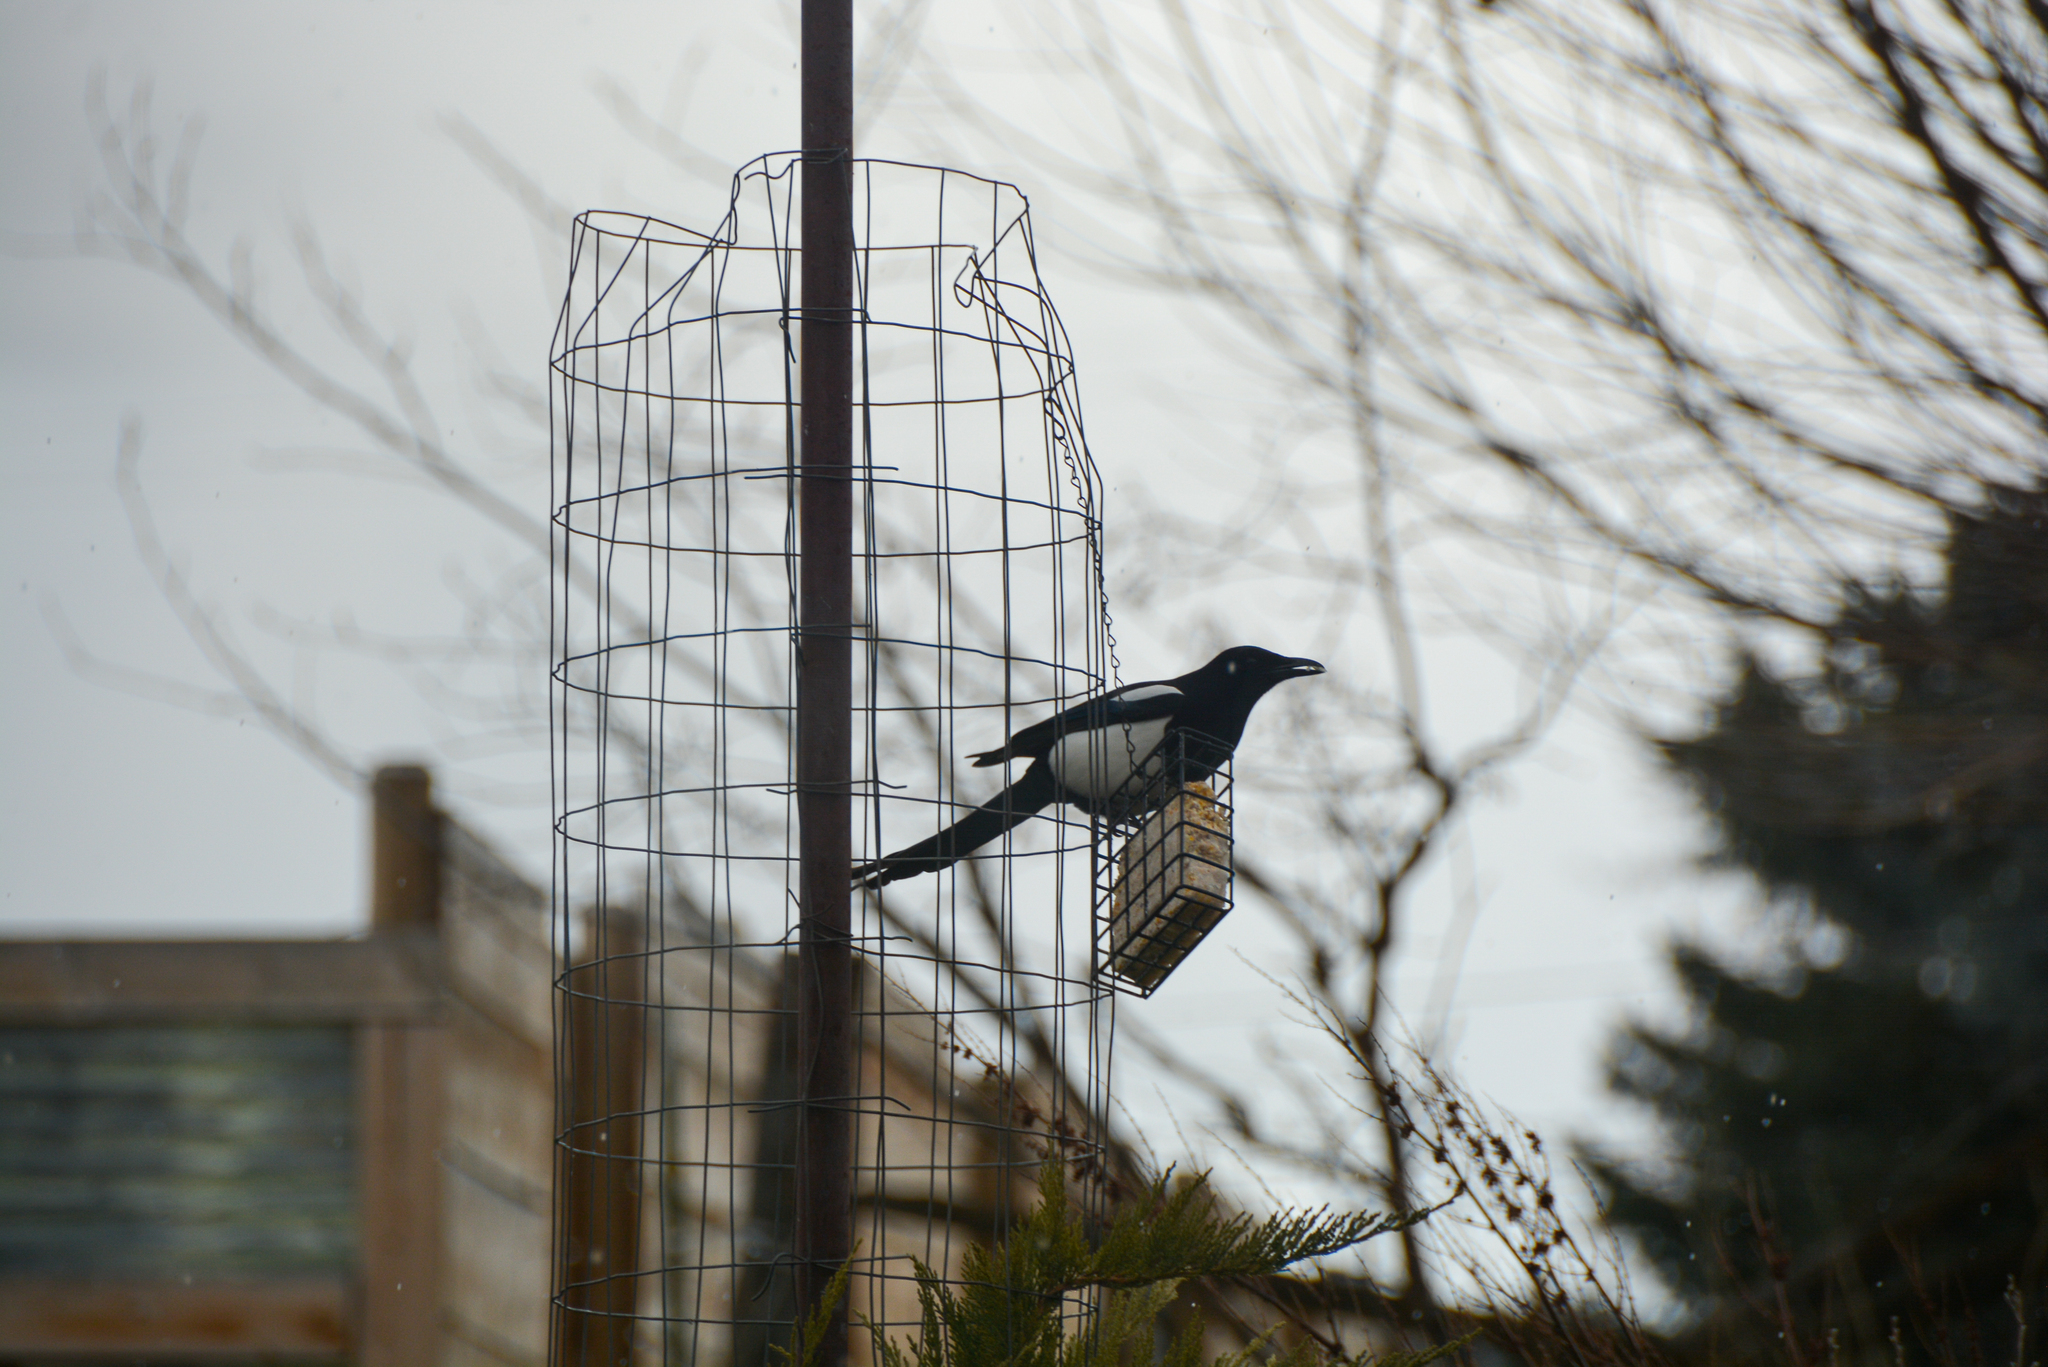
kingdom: Animalia
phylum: Chordata
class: Aves
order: Passeriformes
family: Corvidae
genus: Pica
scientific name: Pica hudsonia
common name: Black-billed magpie
